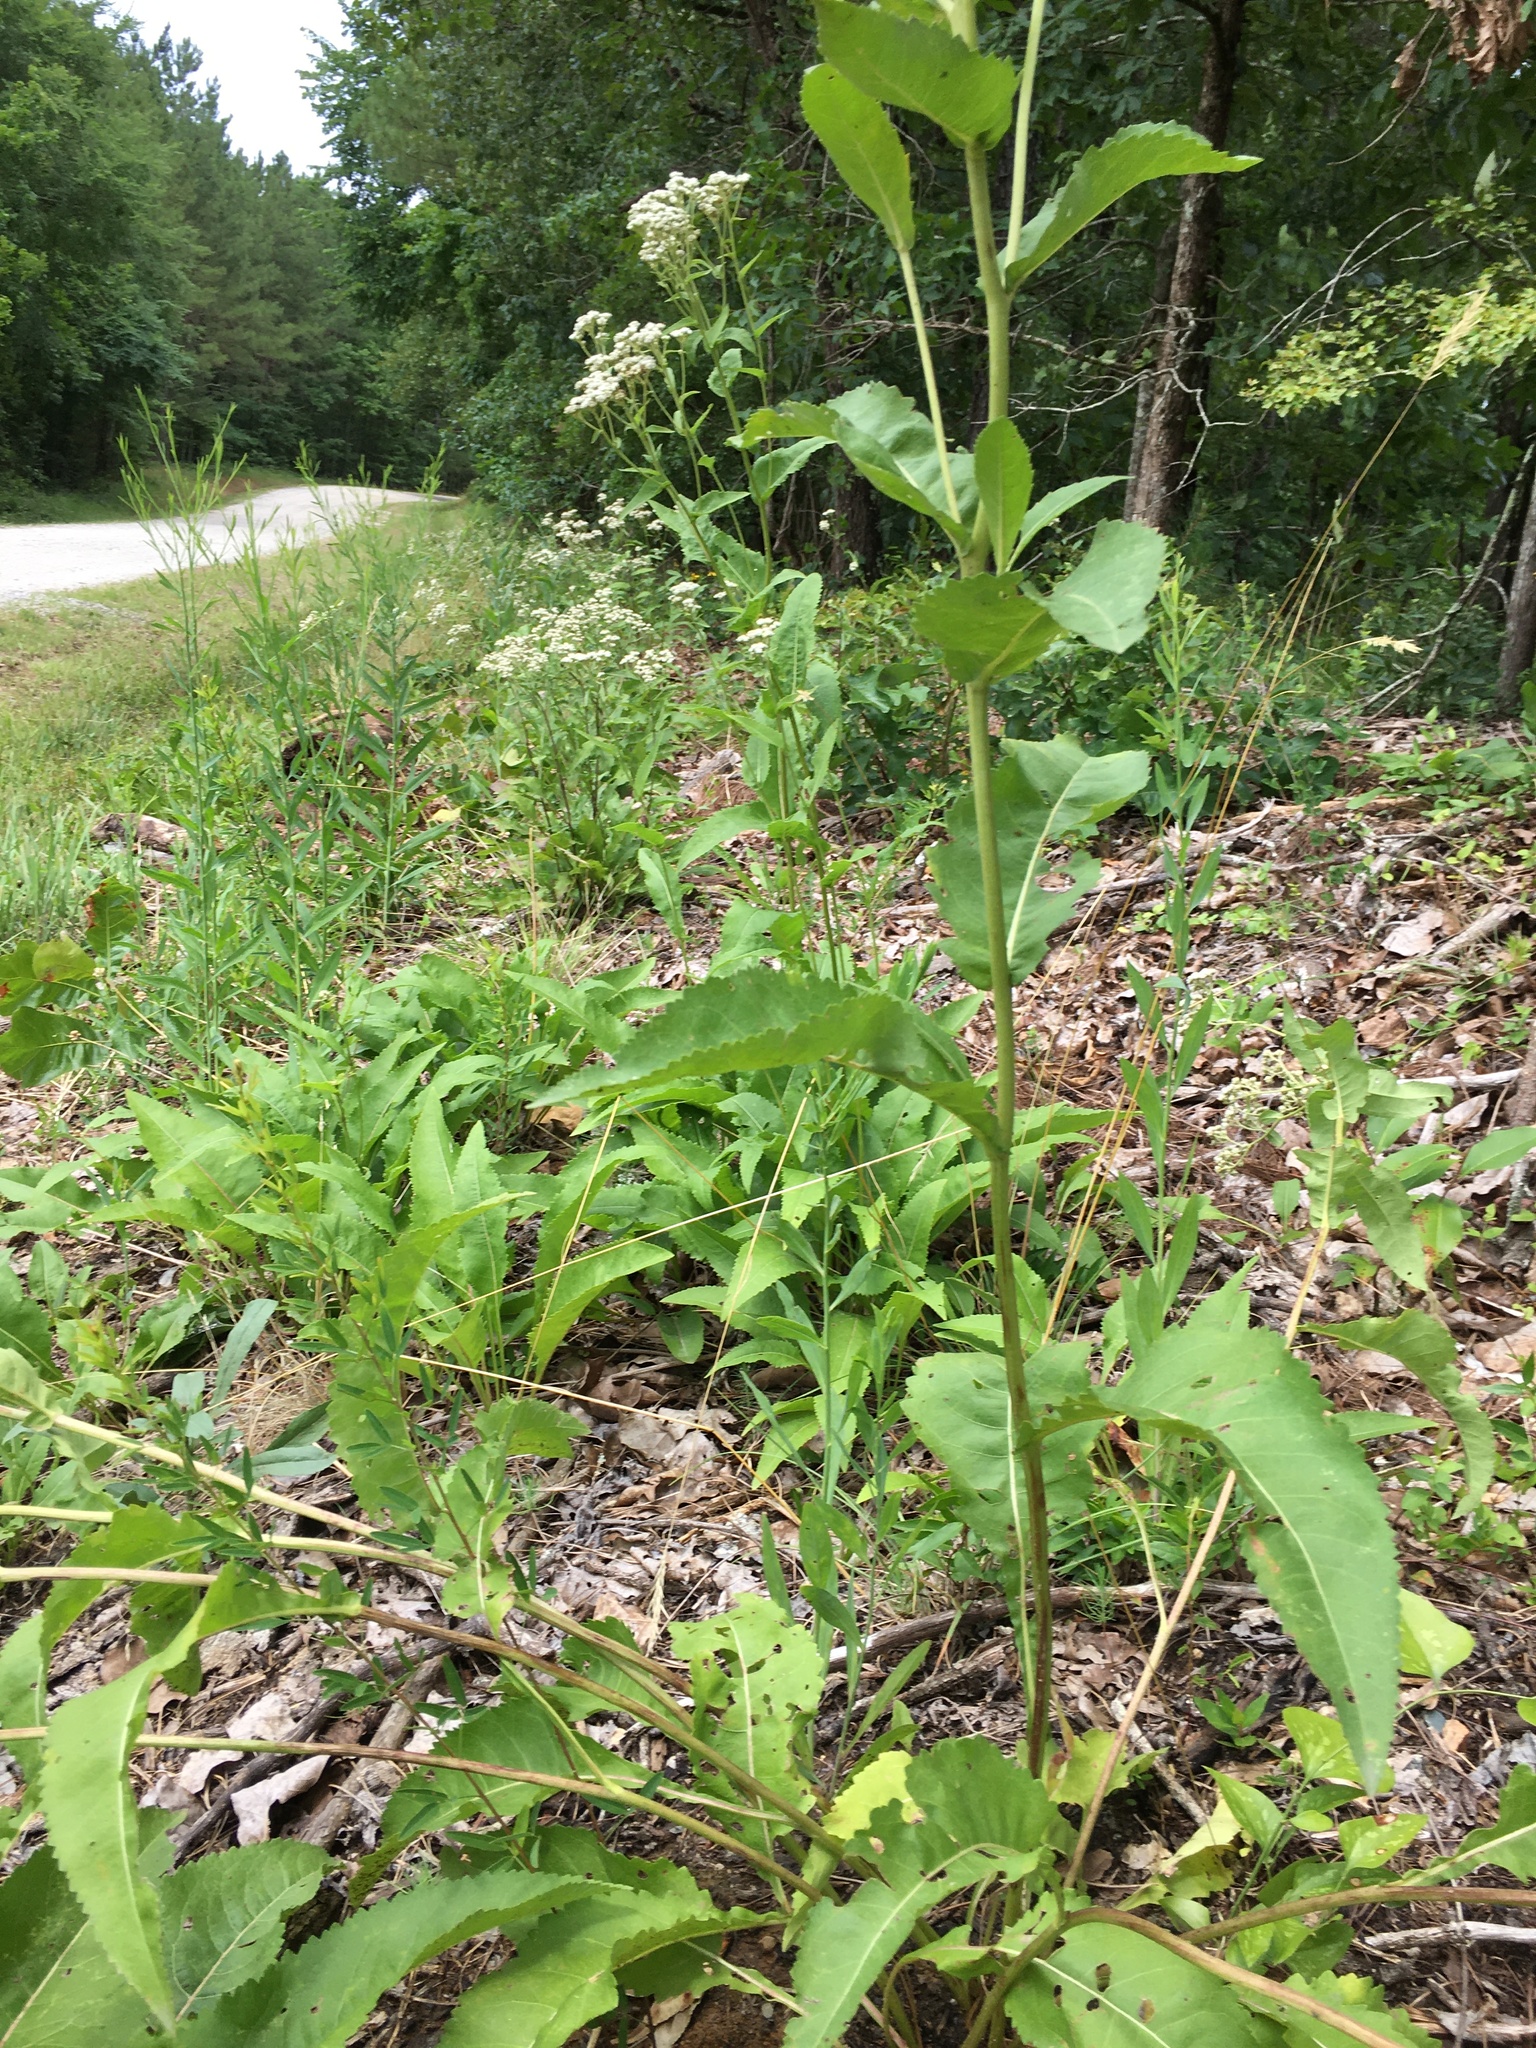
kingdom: Plantae
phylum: Tracheophyta
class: Magnoliopsida
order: Asterales
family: Asteraceae
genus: Parthenium
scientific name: Parthenium integrifolium
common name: American feverfew
